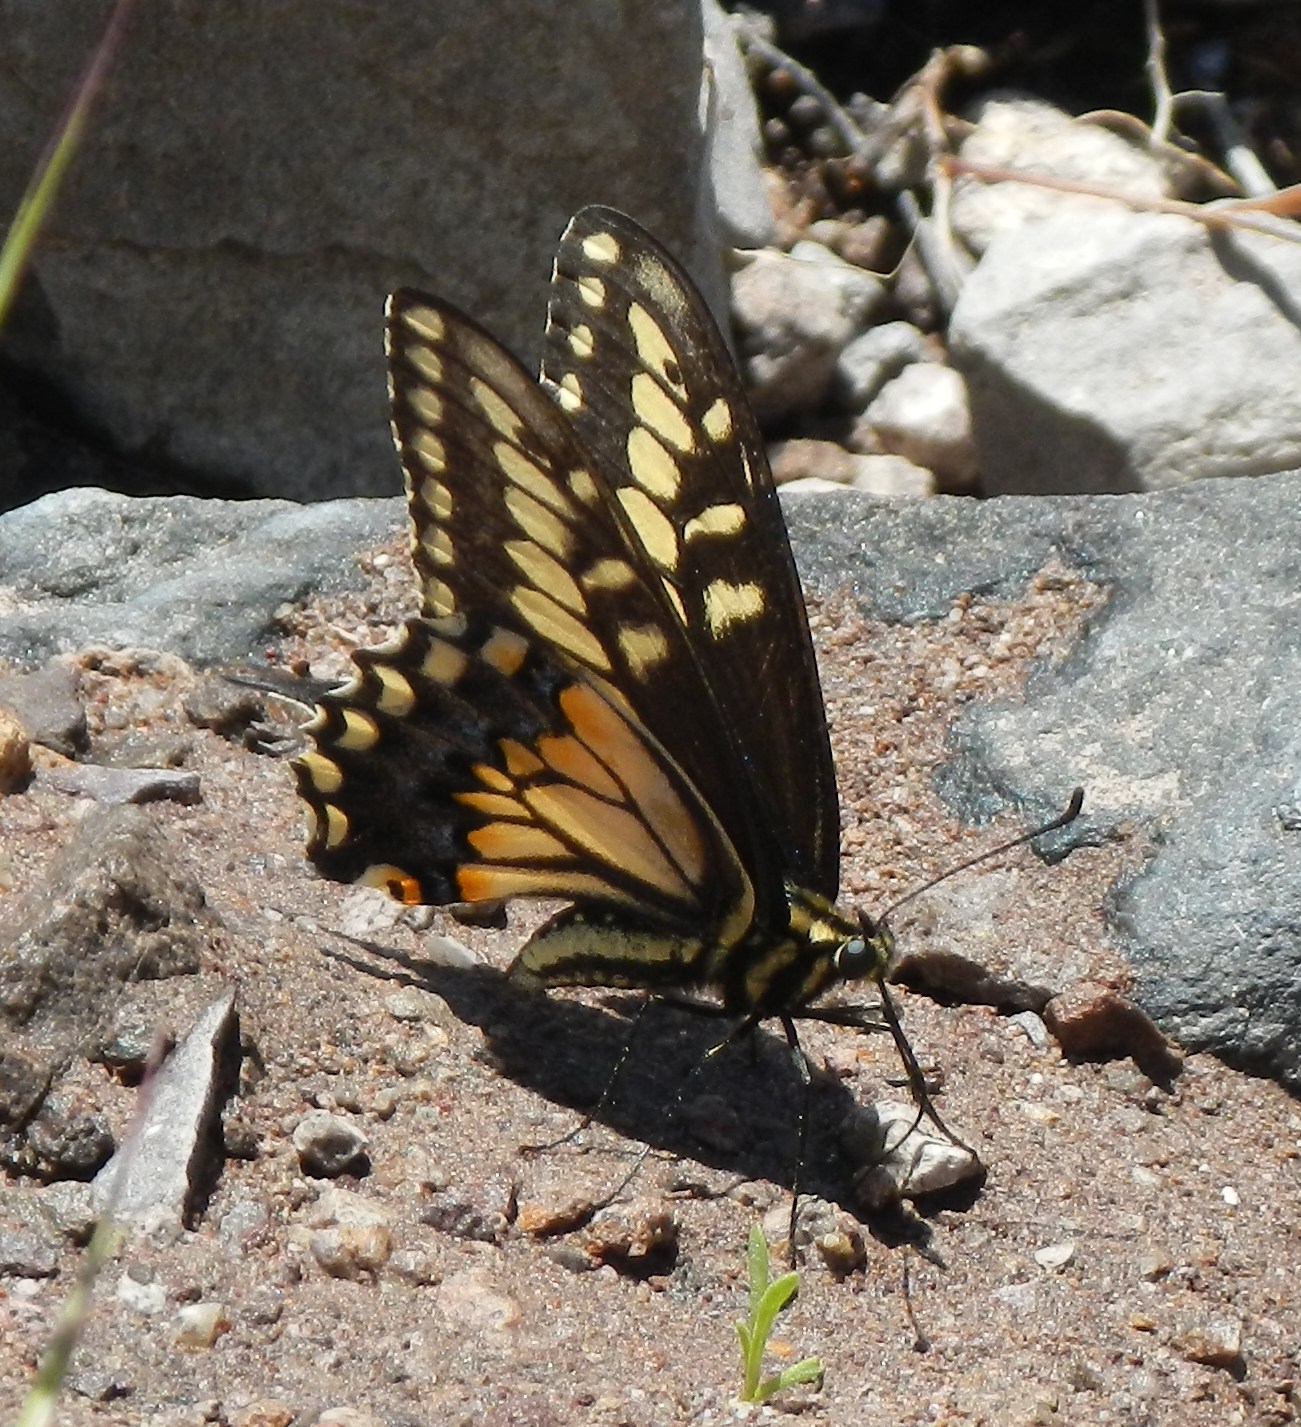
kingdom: Animalia
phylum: Arthropoda
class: Insecta
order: Lepidoptera
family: Papilionidae
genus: Papilio
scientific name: Papilio polyxenes
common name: Black swallowtail
